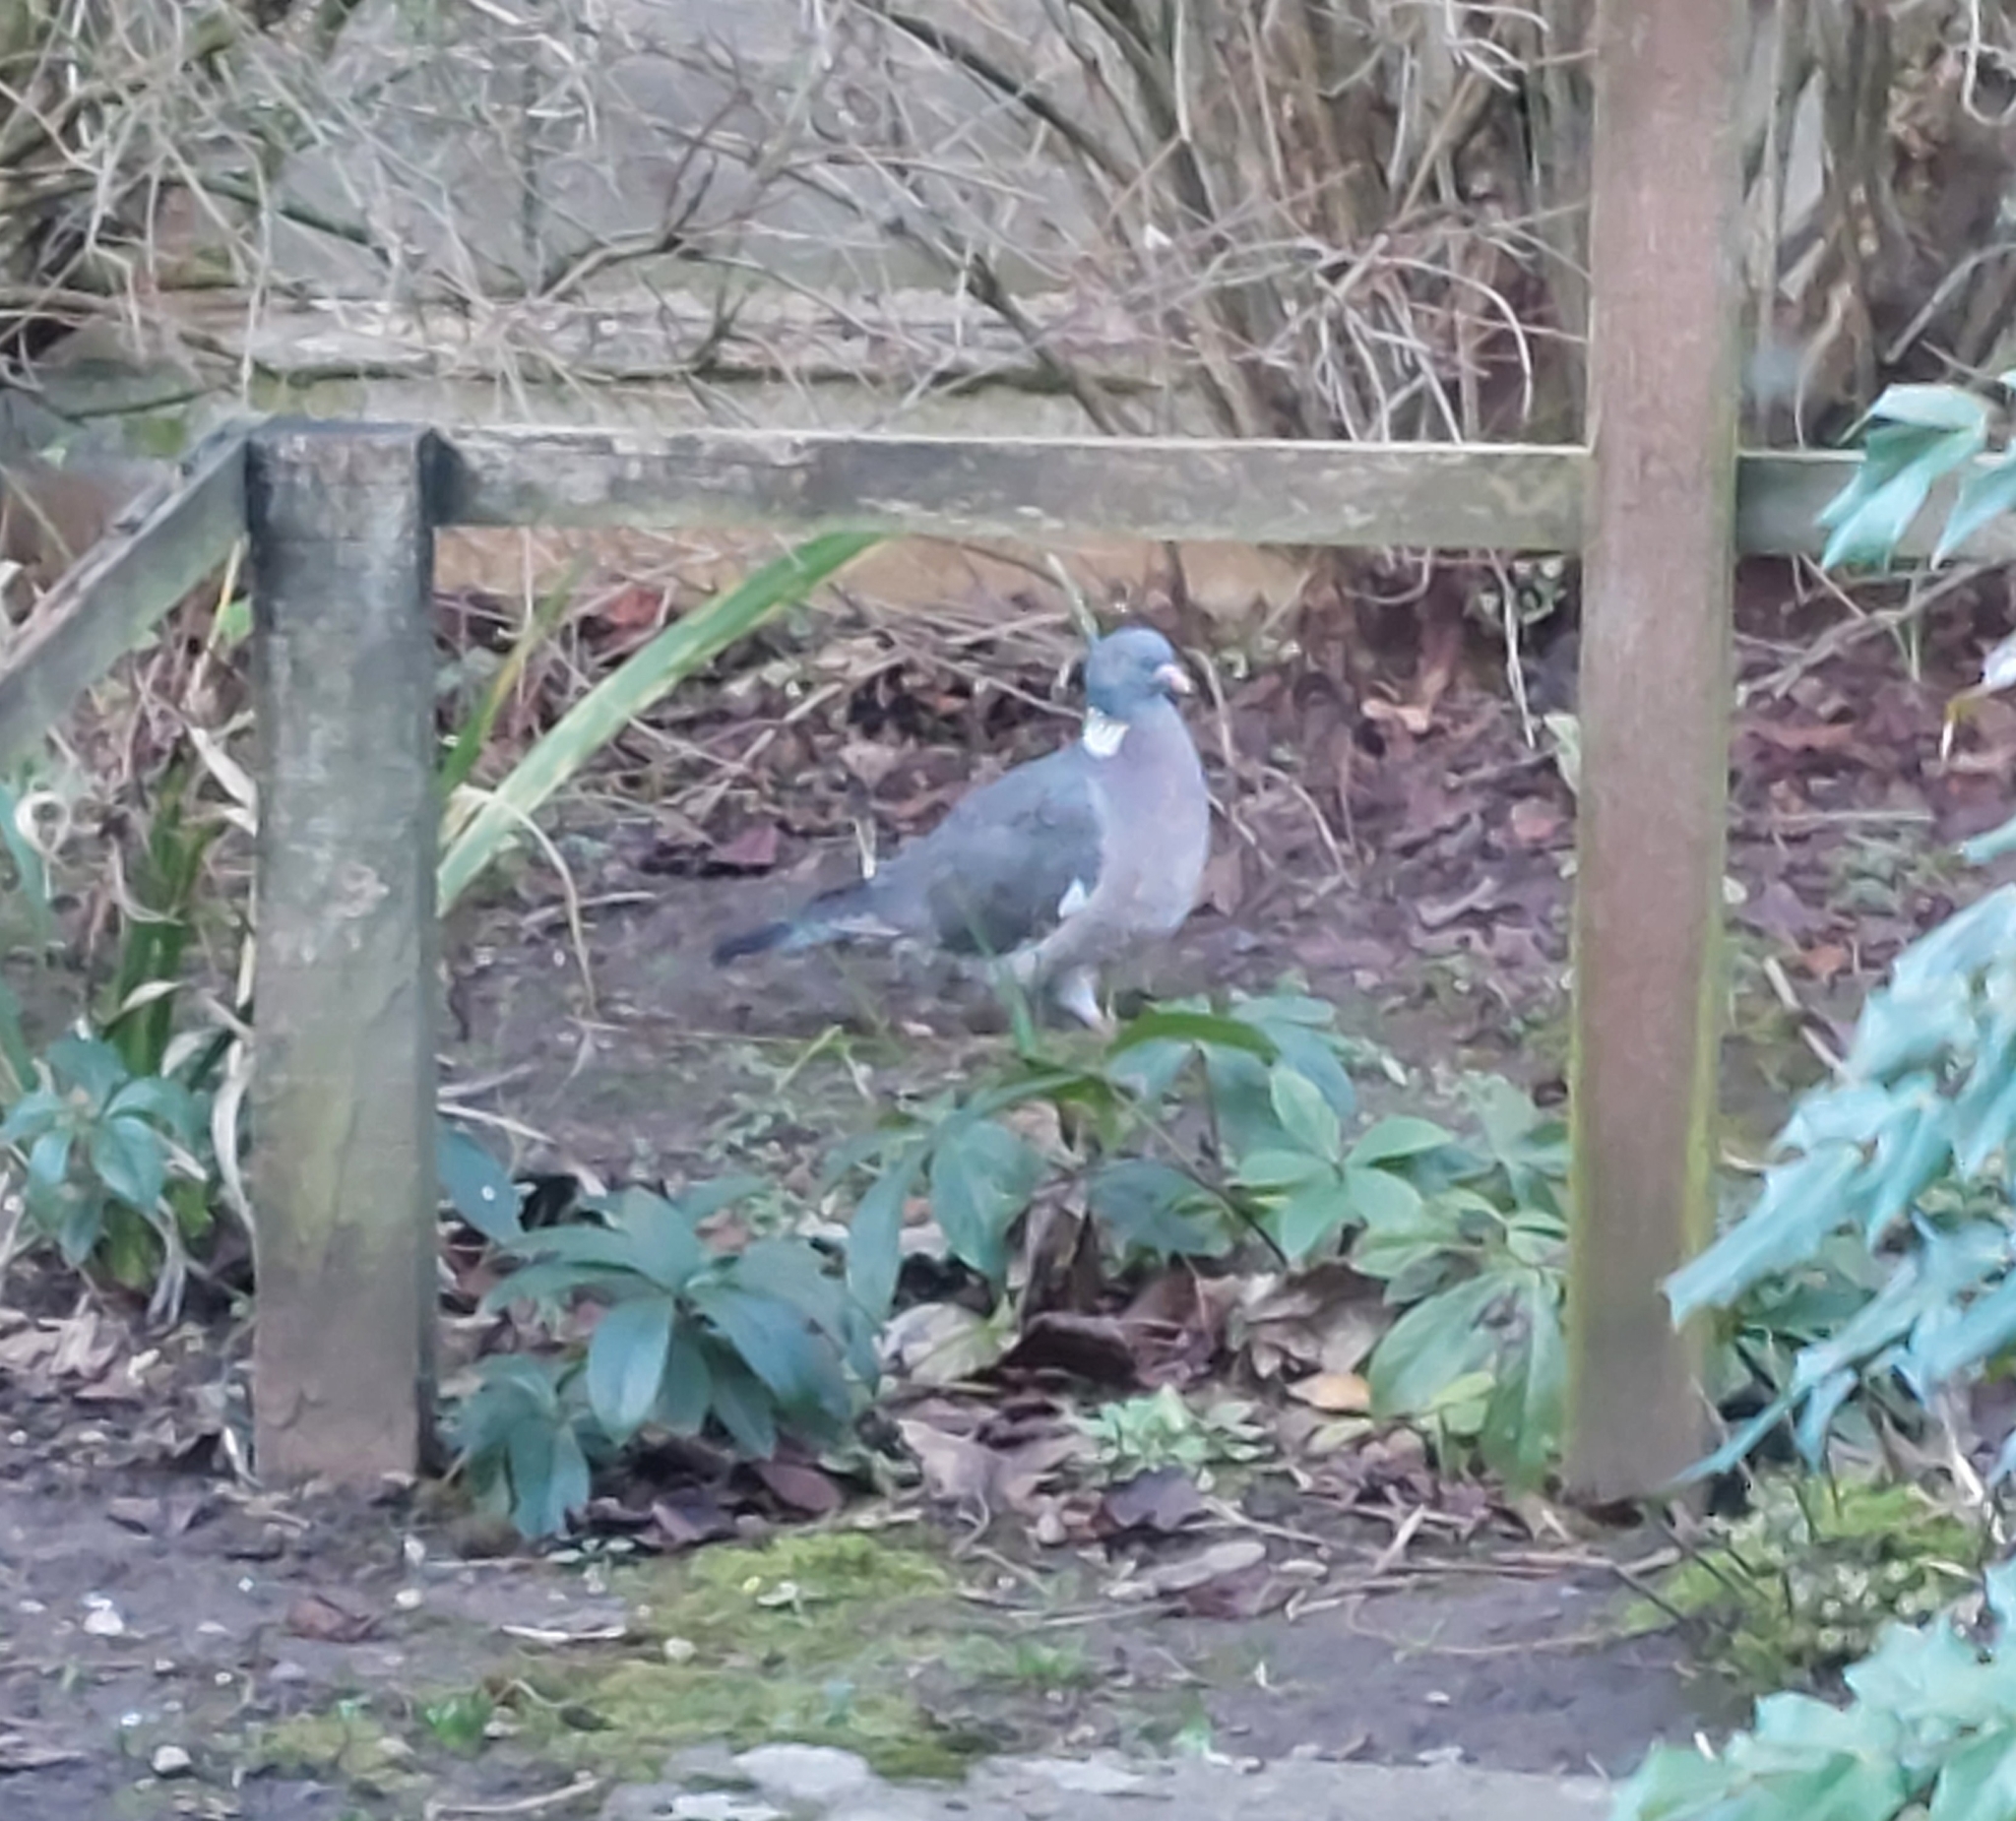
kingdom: Animalia
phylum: Chordata
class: Aves
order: Columbiformes
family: Columbidae
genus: Columba
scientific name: Columba palumbus
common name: Common wood pigeon
